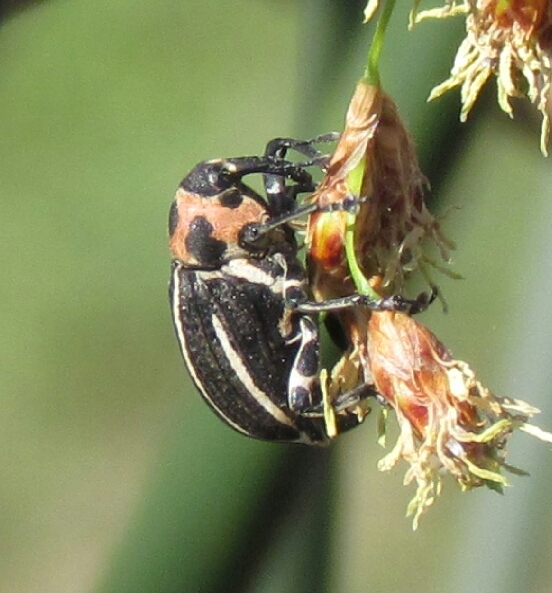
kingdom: Animalia
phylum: Arthropoda
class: Insecta
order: Coleoptera
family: Curculionidae
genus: Neodiplogrammus
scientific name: Neodiplogrammus
